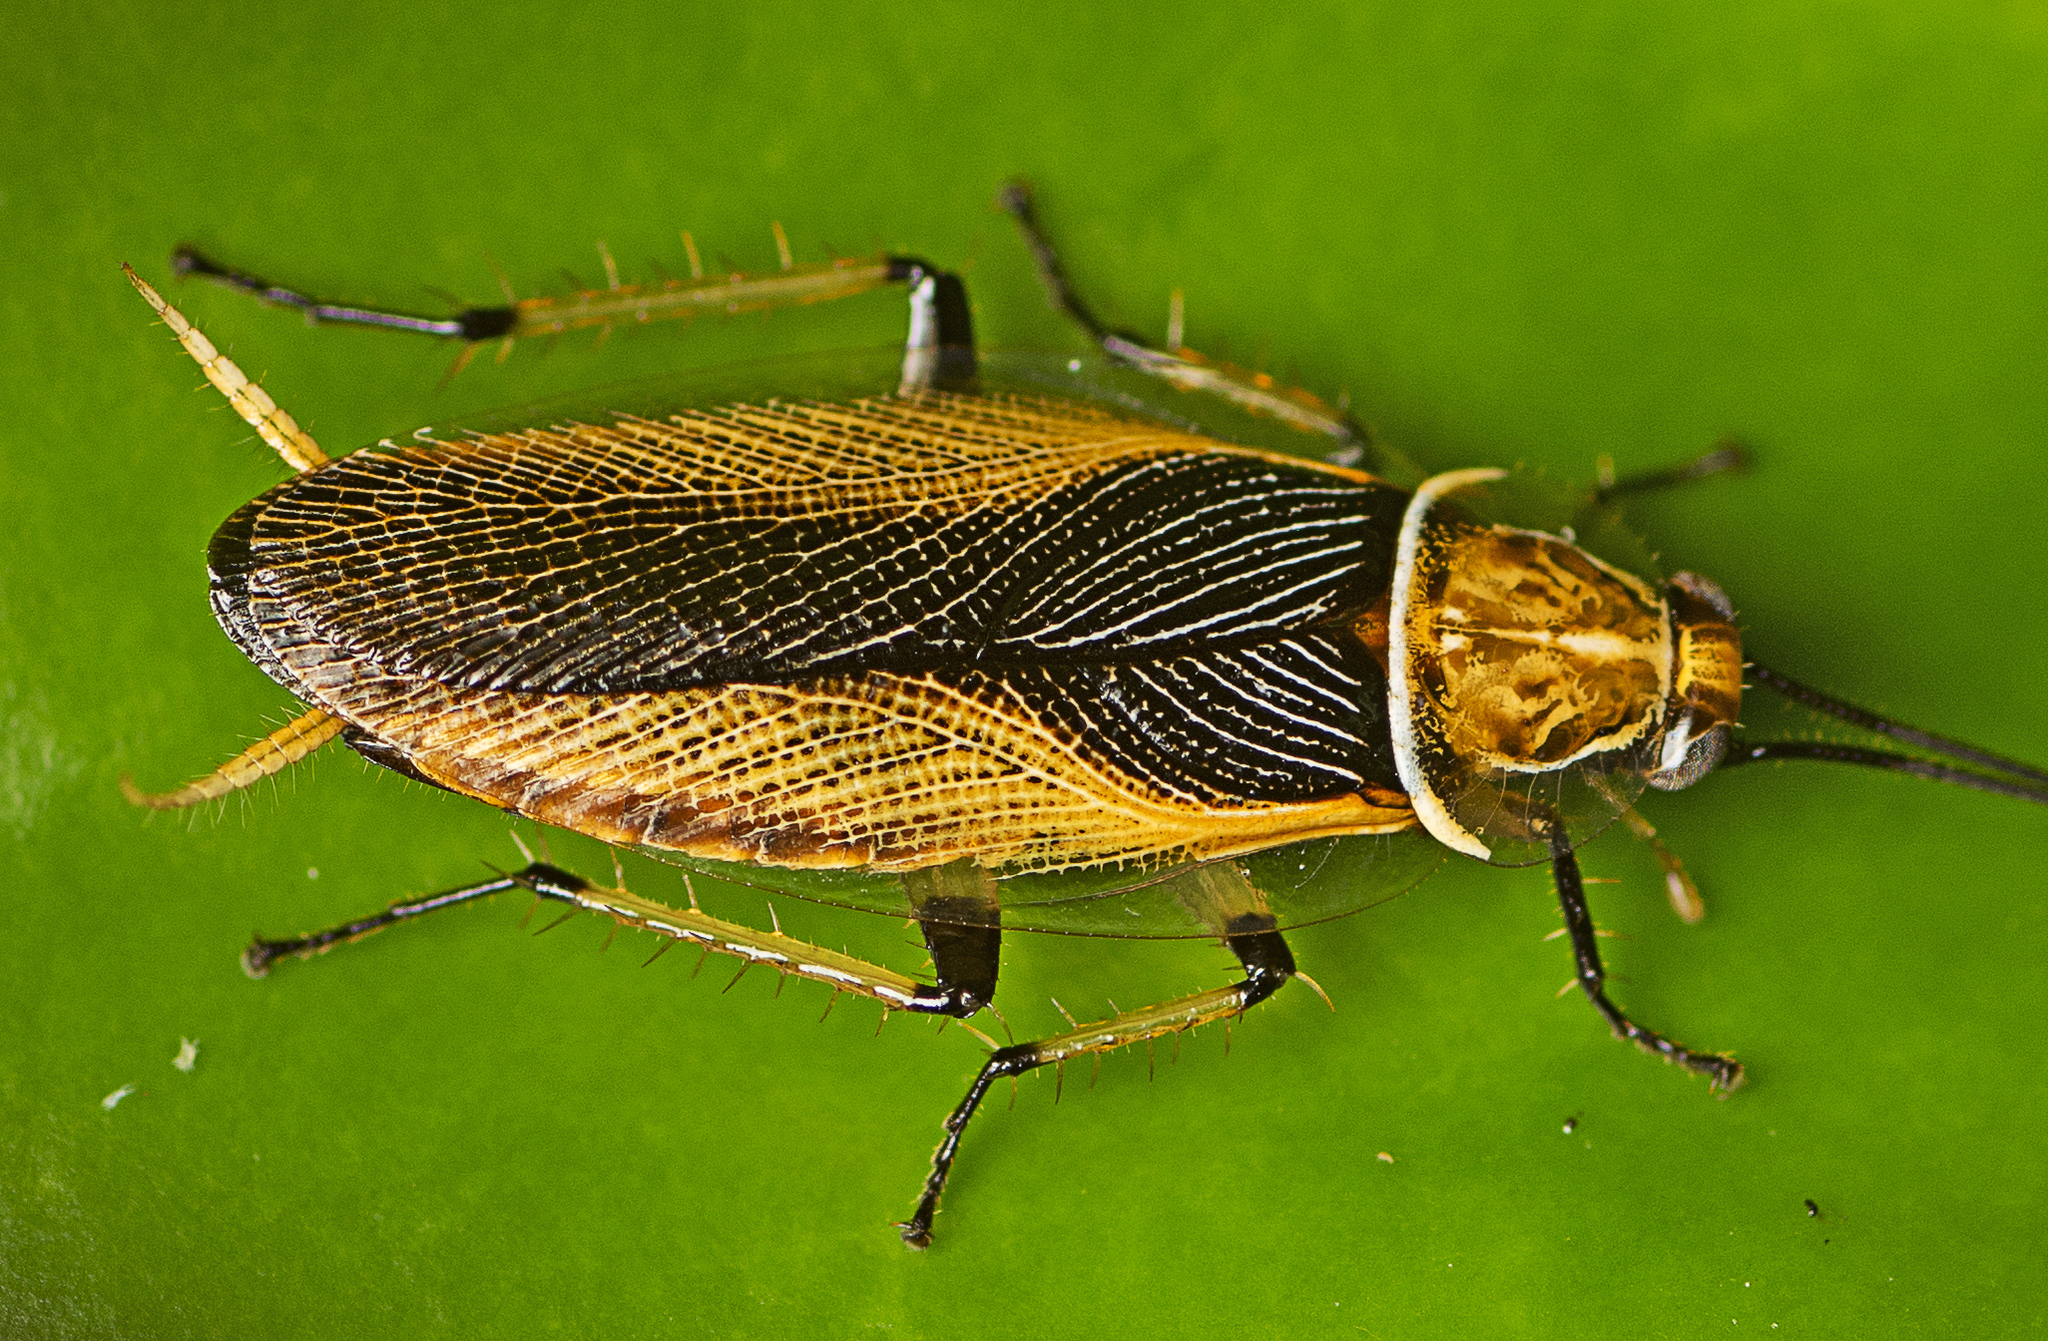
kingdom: Animalia
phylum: Arthropoda
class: Insecta
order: Blattodea
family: Ectobiidae
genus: Ellipsidion
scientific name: Ellipsidion bicolor
